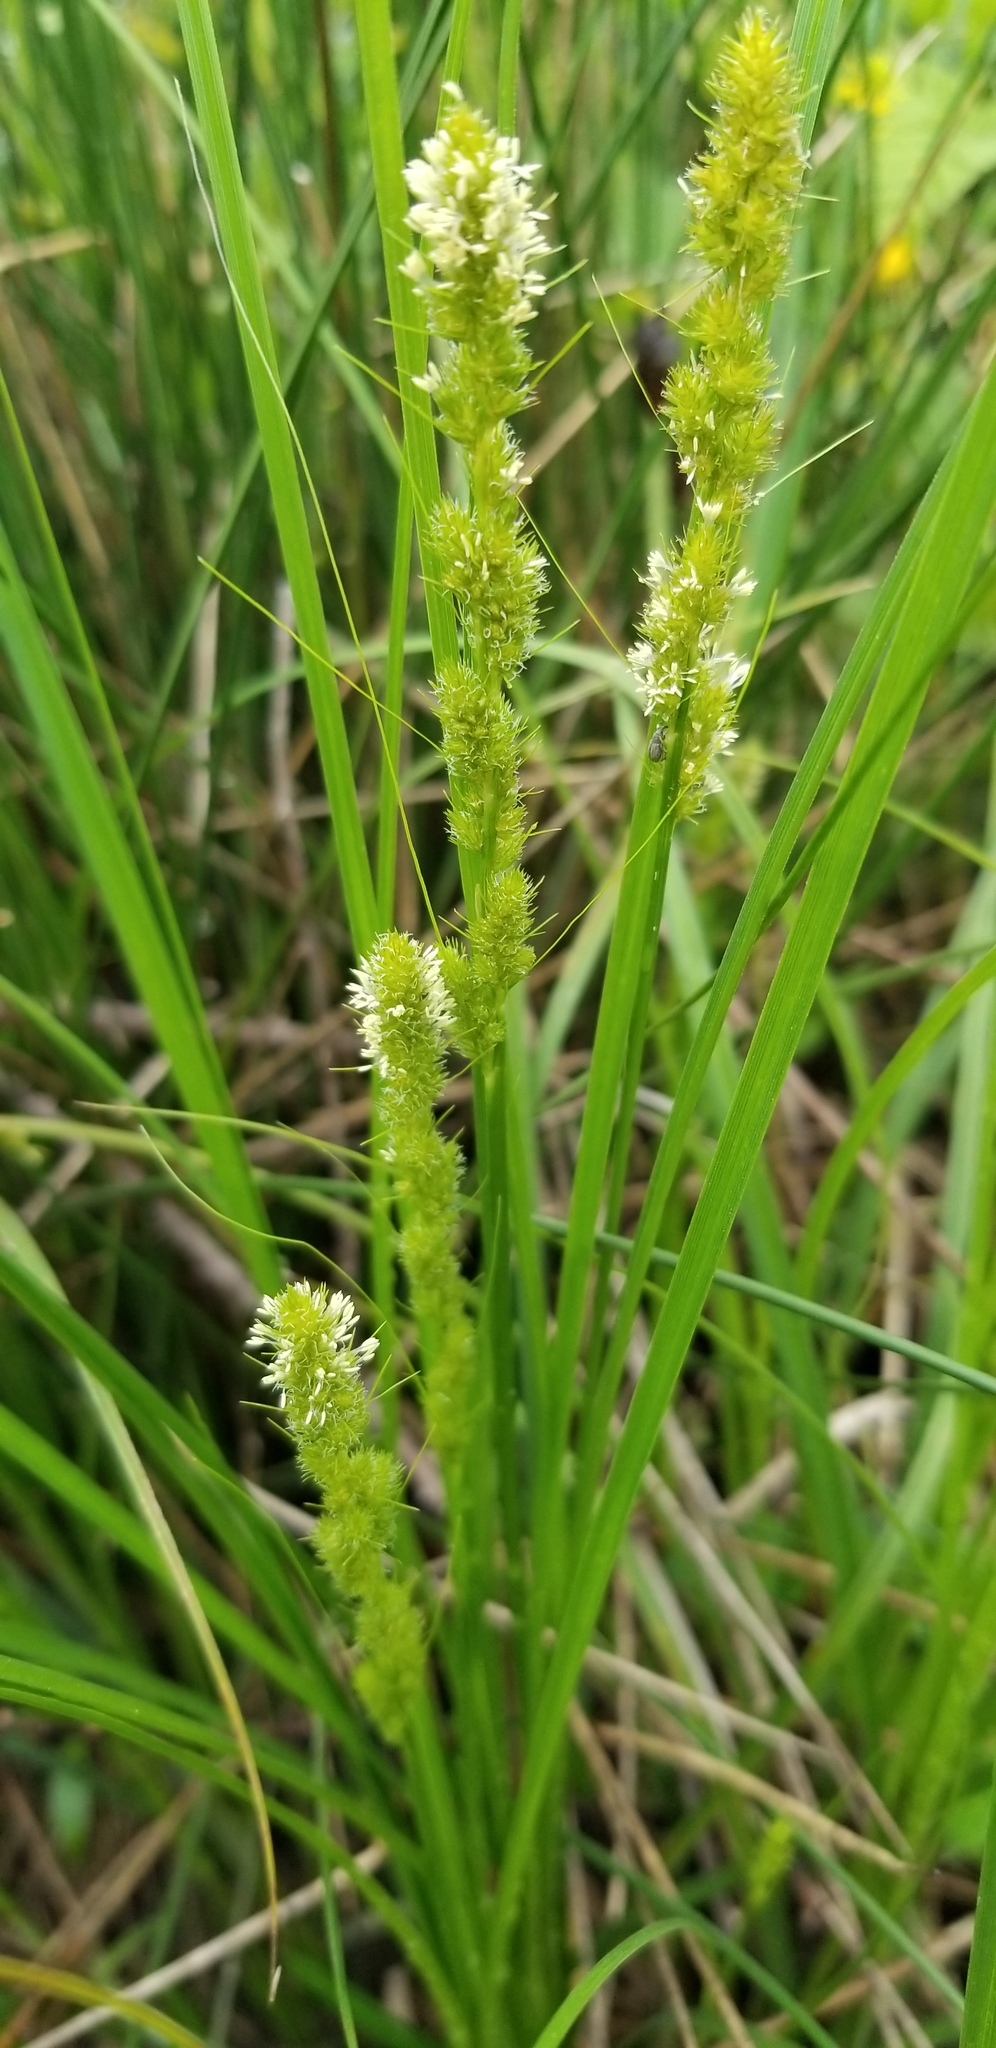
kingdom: Plantae
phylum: Tracheophyta
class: Liliopsida
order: Poales
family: Cyperaceae
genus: Carex
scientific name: Carex vulpinoidea
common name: American fox-sedge
